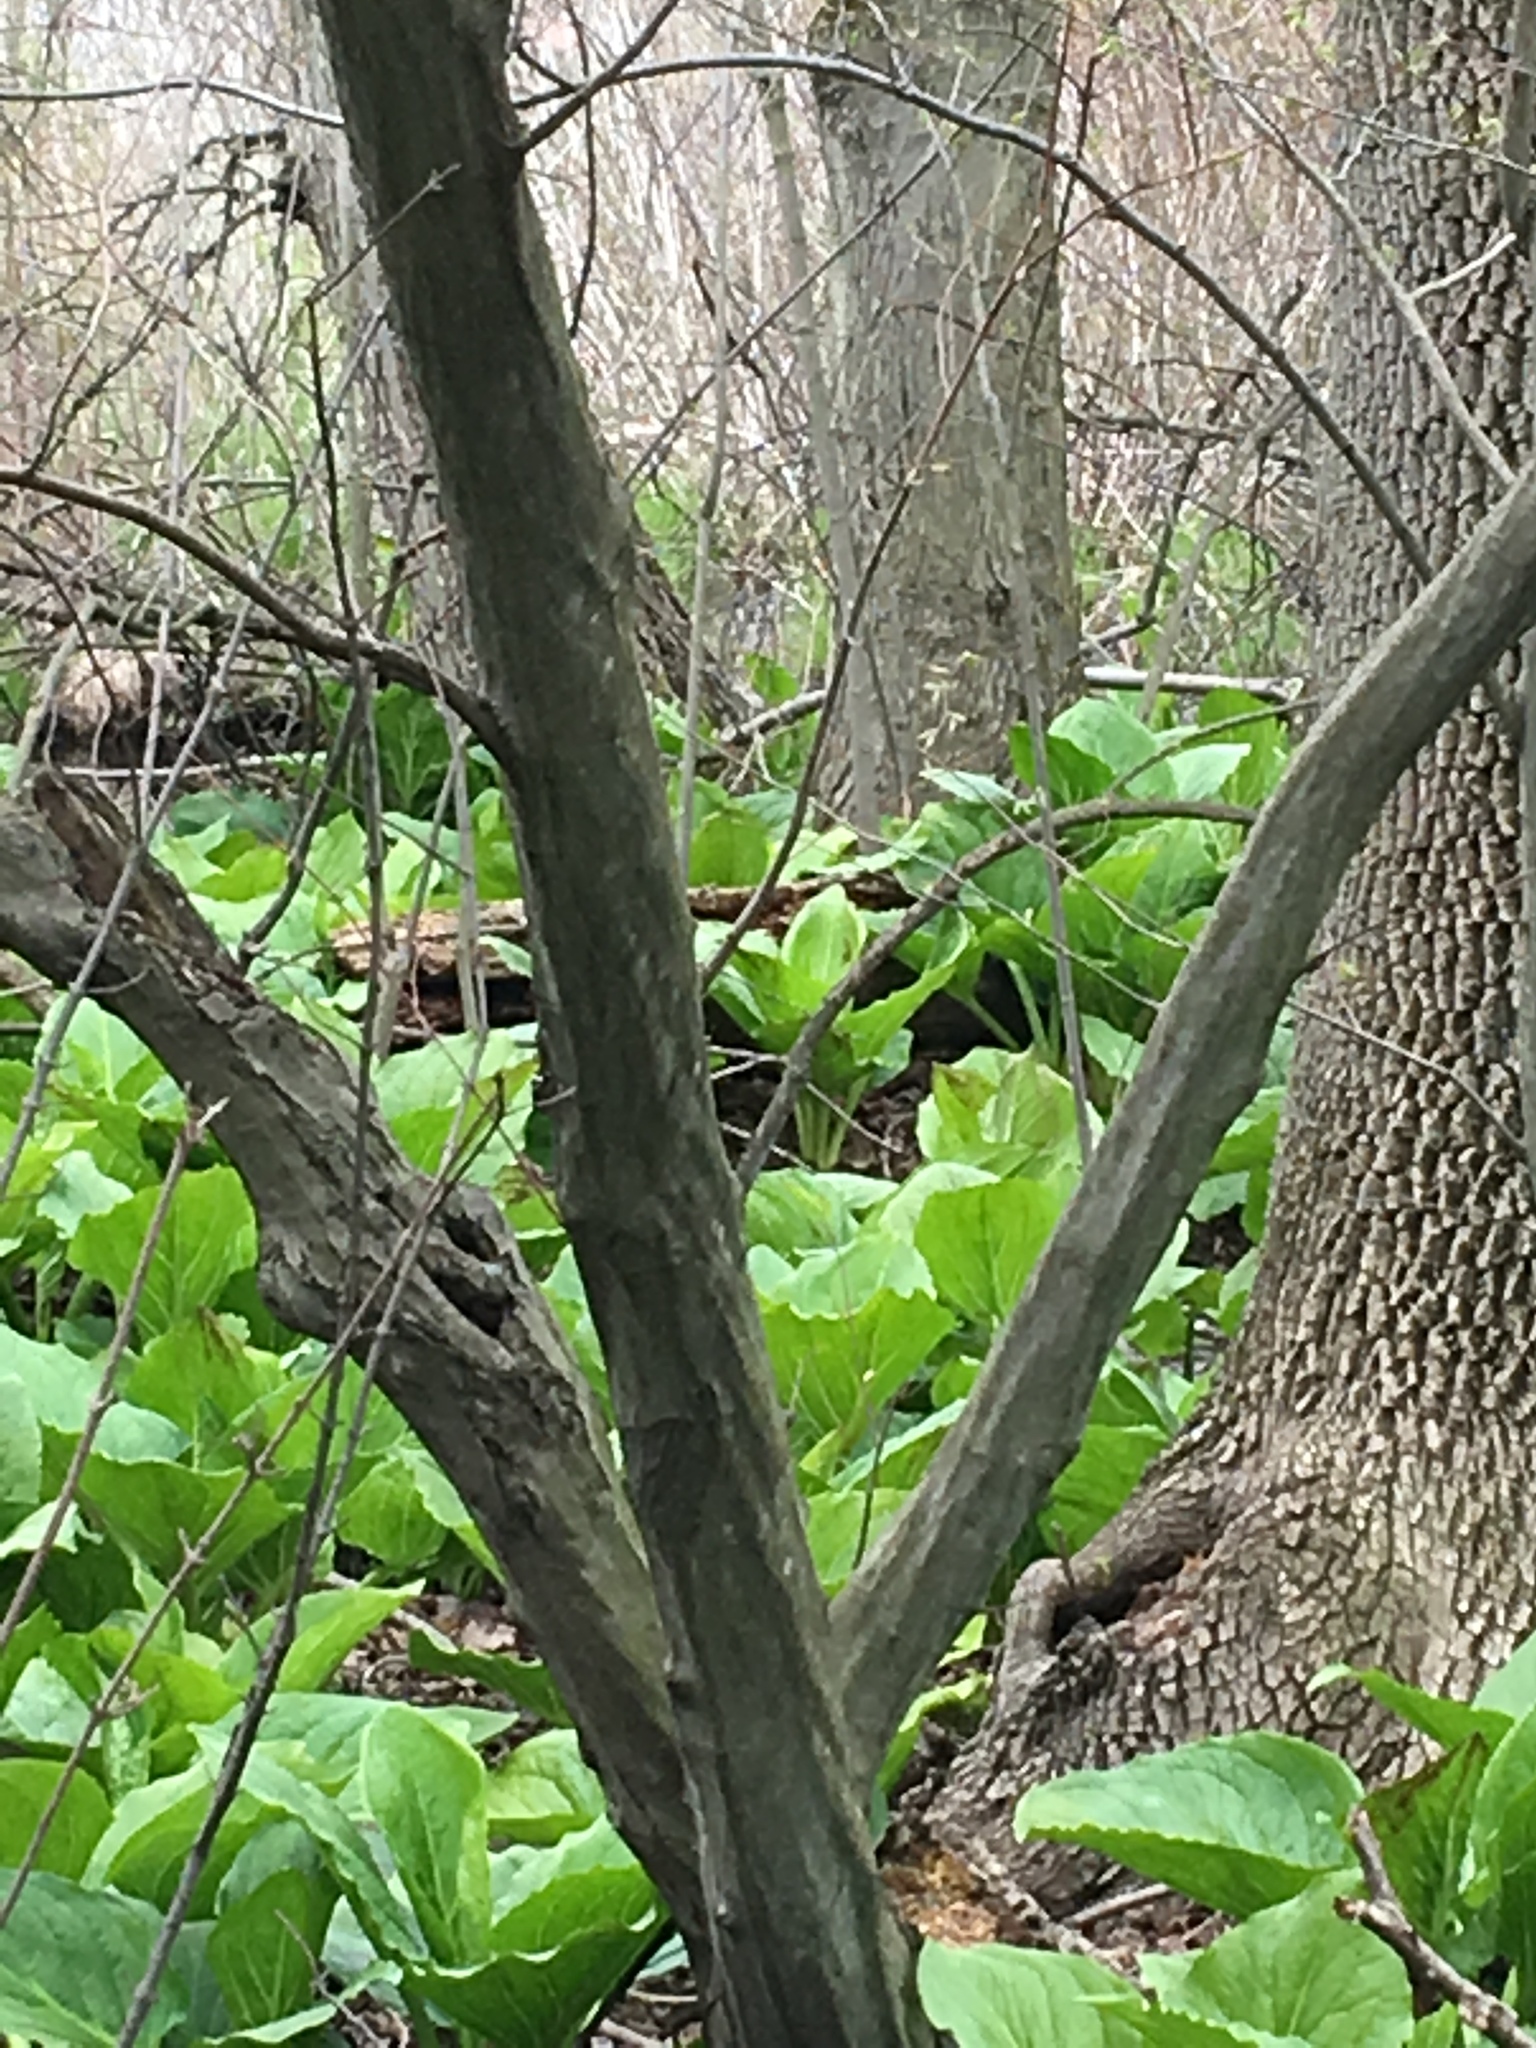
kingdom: Plantae
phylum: Tracheophyta
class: Liliopsida
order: Alismatales
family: Araceae
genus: Symplocarpus
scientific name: Symplocarpus foetidus
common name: Eastern skunk cabbage
